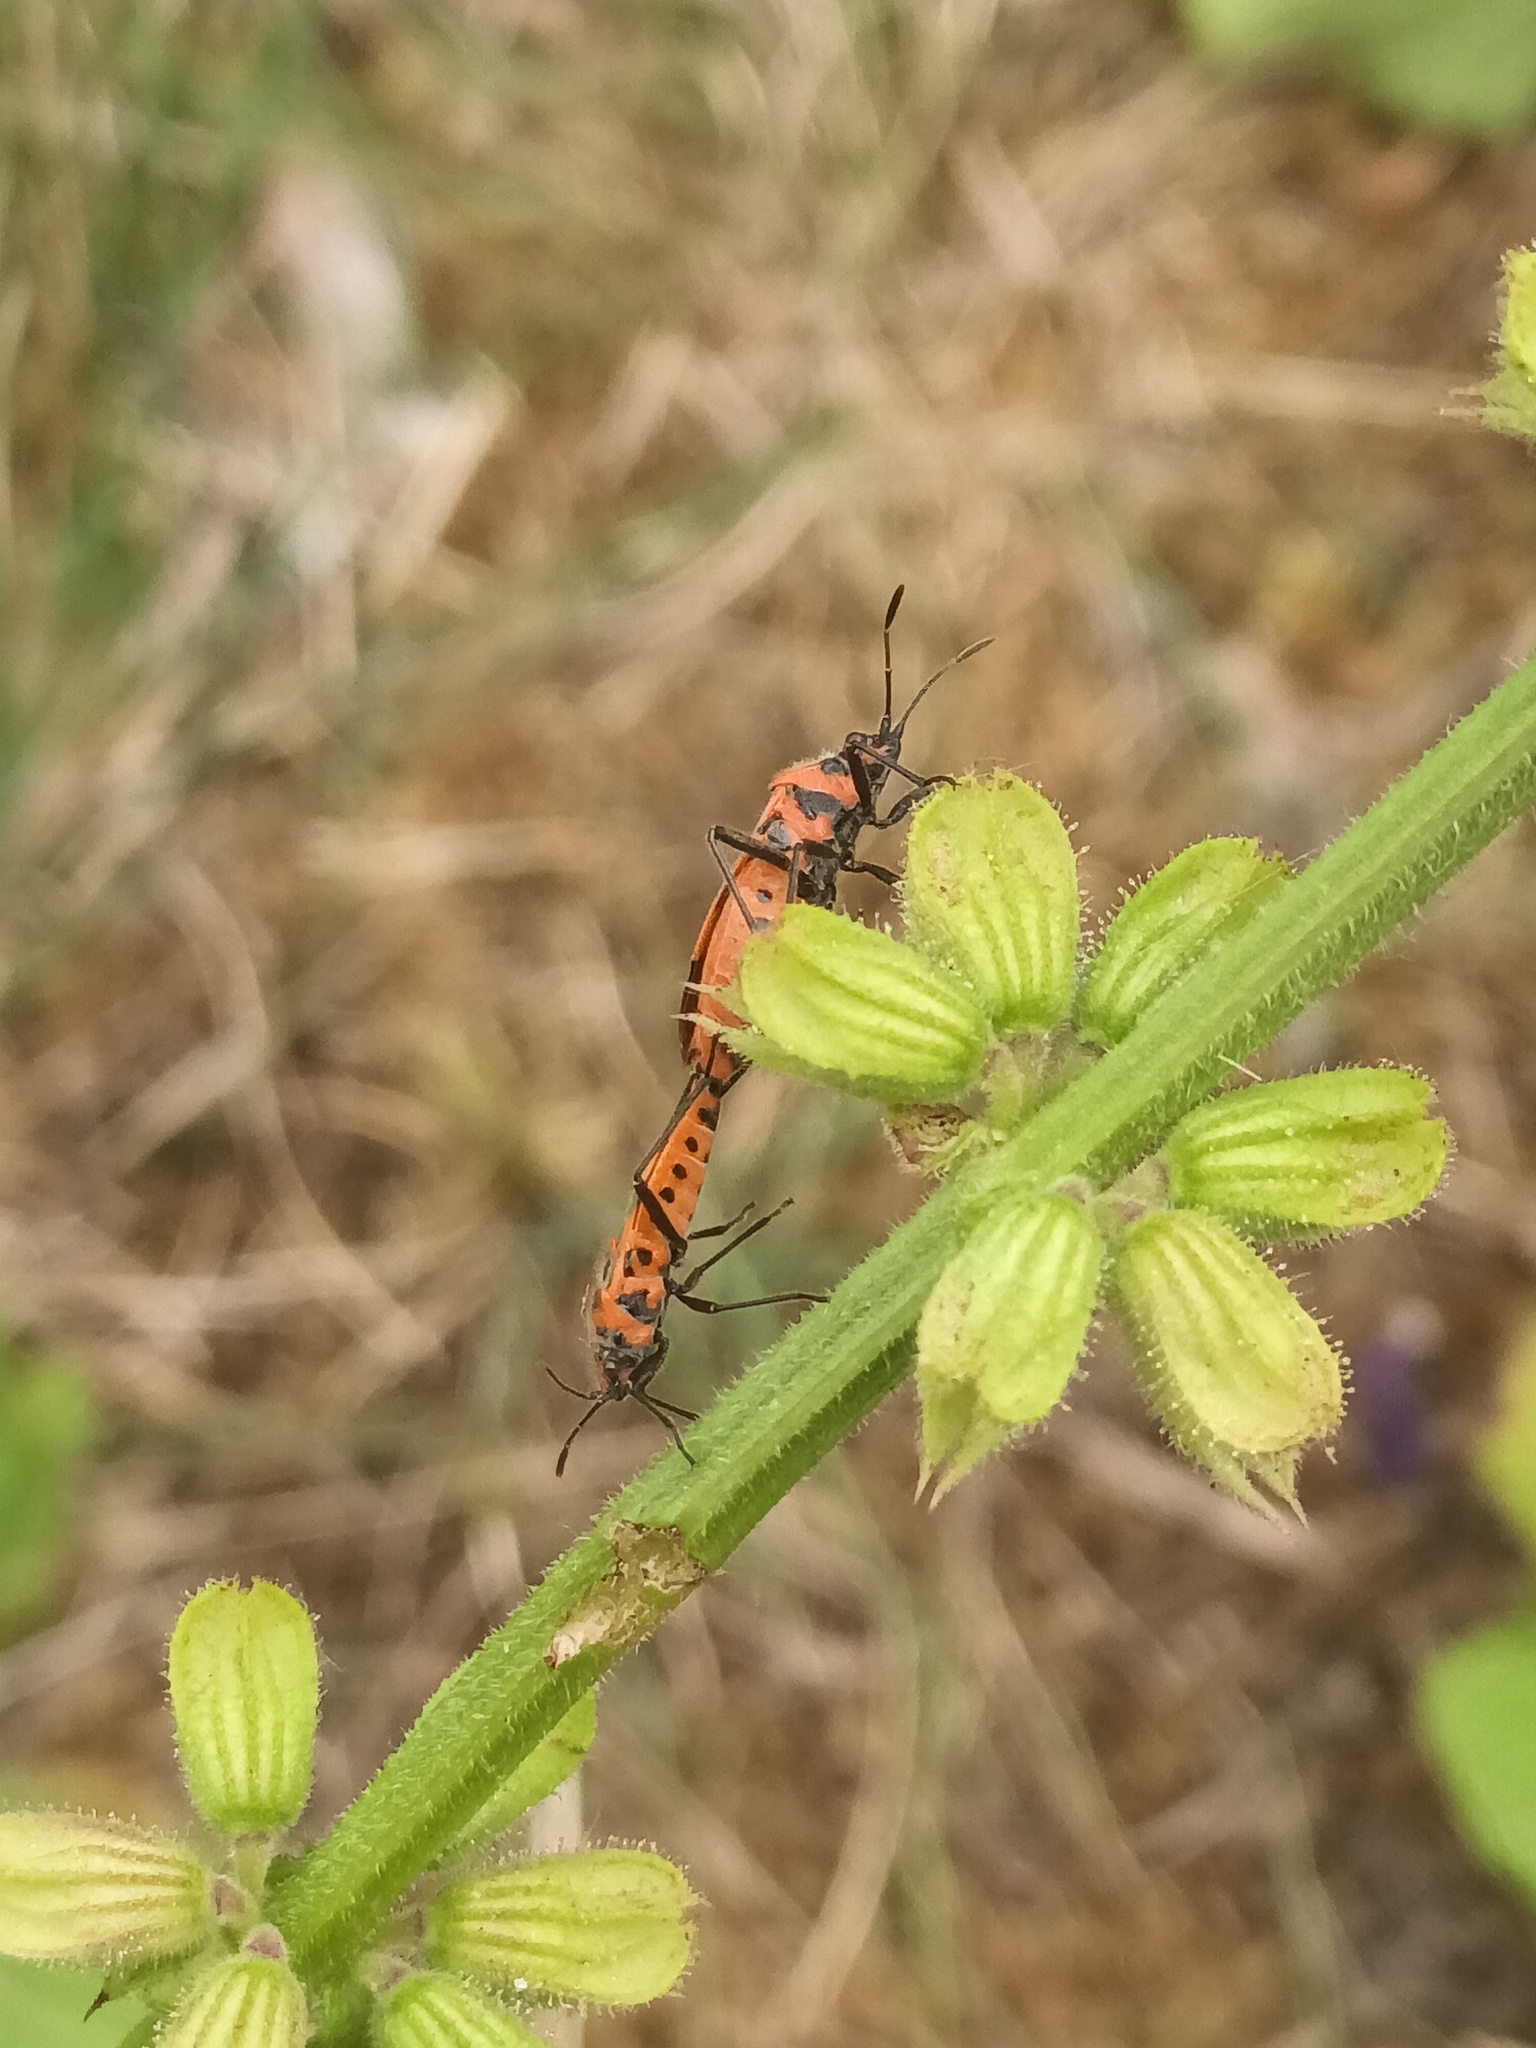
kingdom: Animalia
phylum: Arthropoda
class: Insecta
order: Hemiptera
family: Rhopalidae
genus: Corizus
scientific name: Corizus hyoscyami
